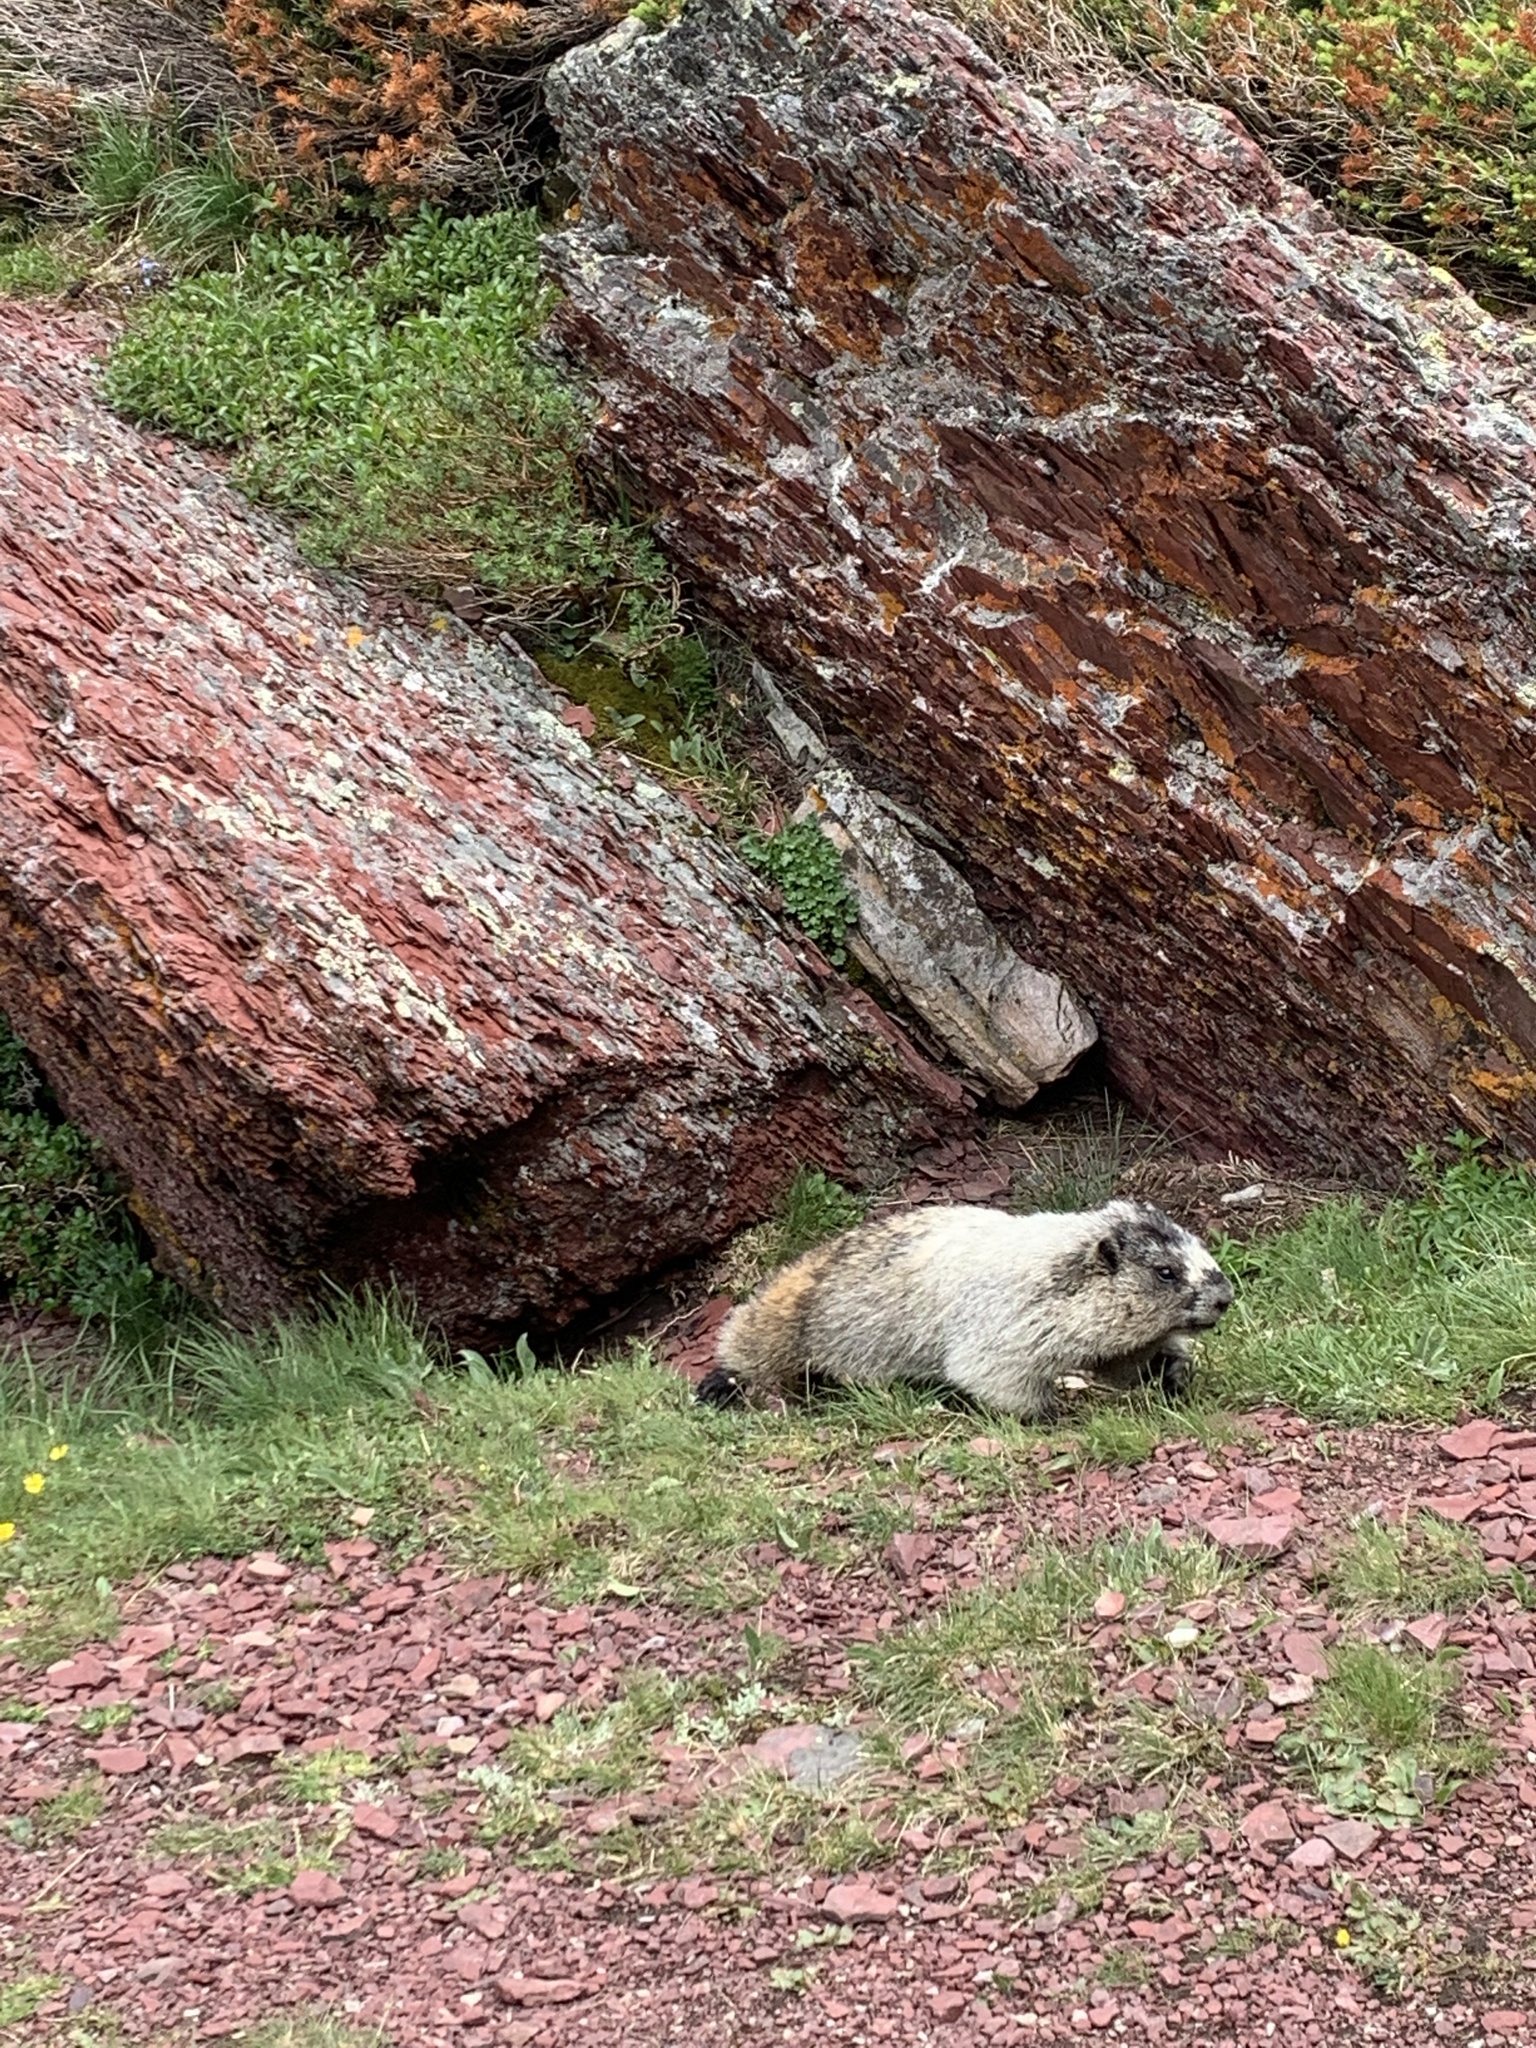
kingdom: Animalia
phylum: Chordata
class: Mammalia
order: Rodentia
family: Sciuridae
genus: Marmota
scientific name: Marmota caligata
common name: Hoary marmot
